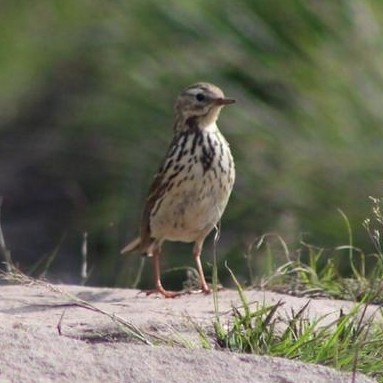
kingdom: Animalia
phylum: Chordata
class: Aves
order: Passeriformes
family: Motacillidae
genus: Anthus
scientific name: Anthus pratensis
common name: Meadow pipit
